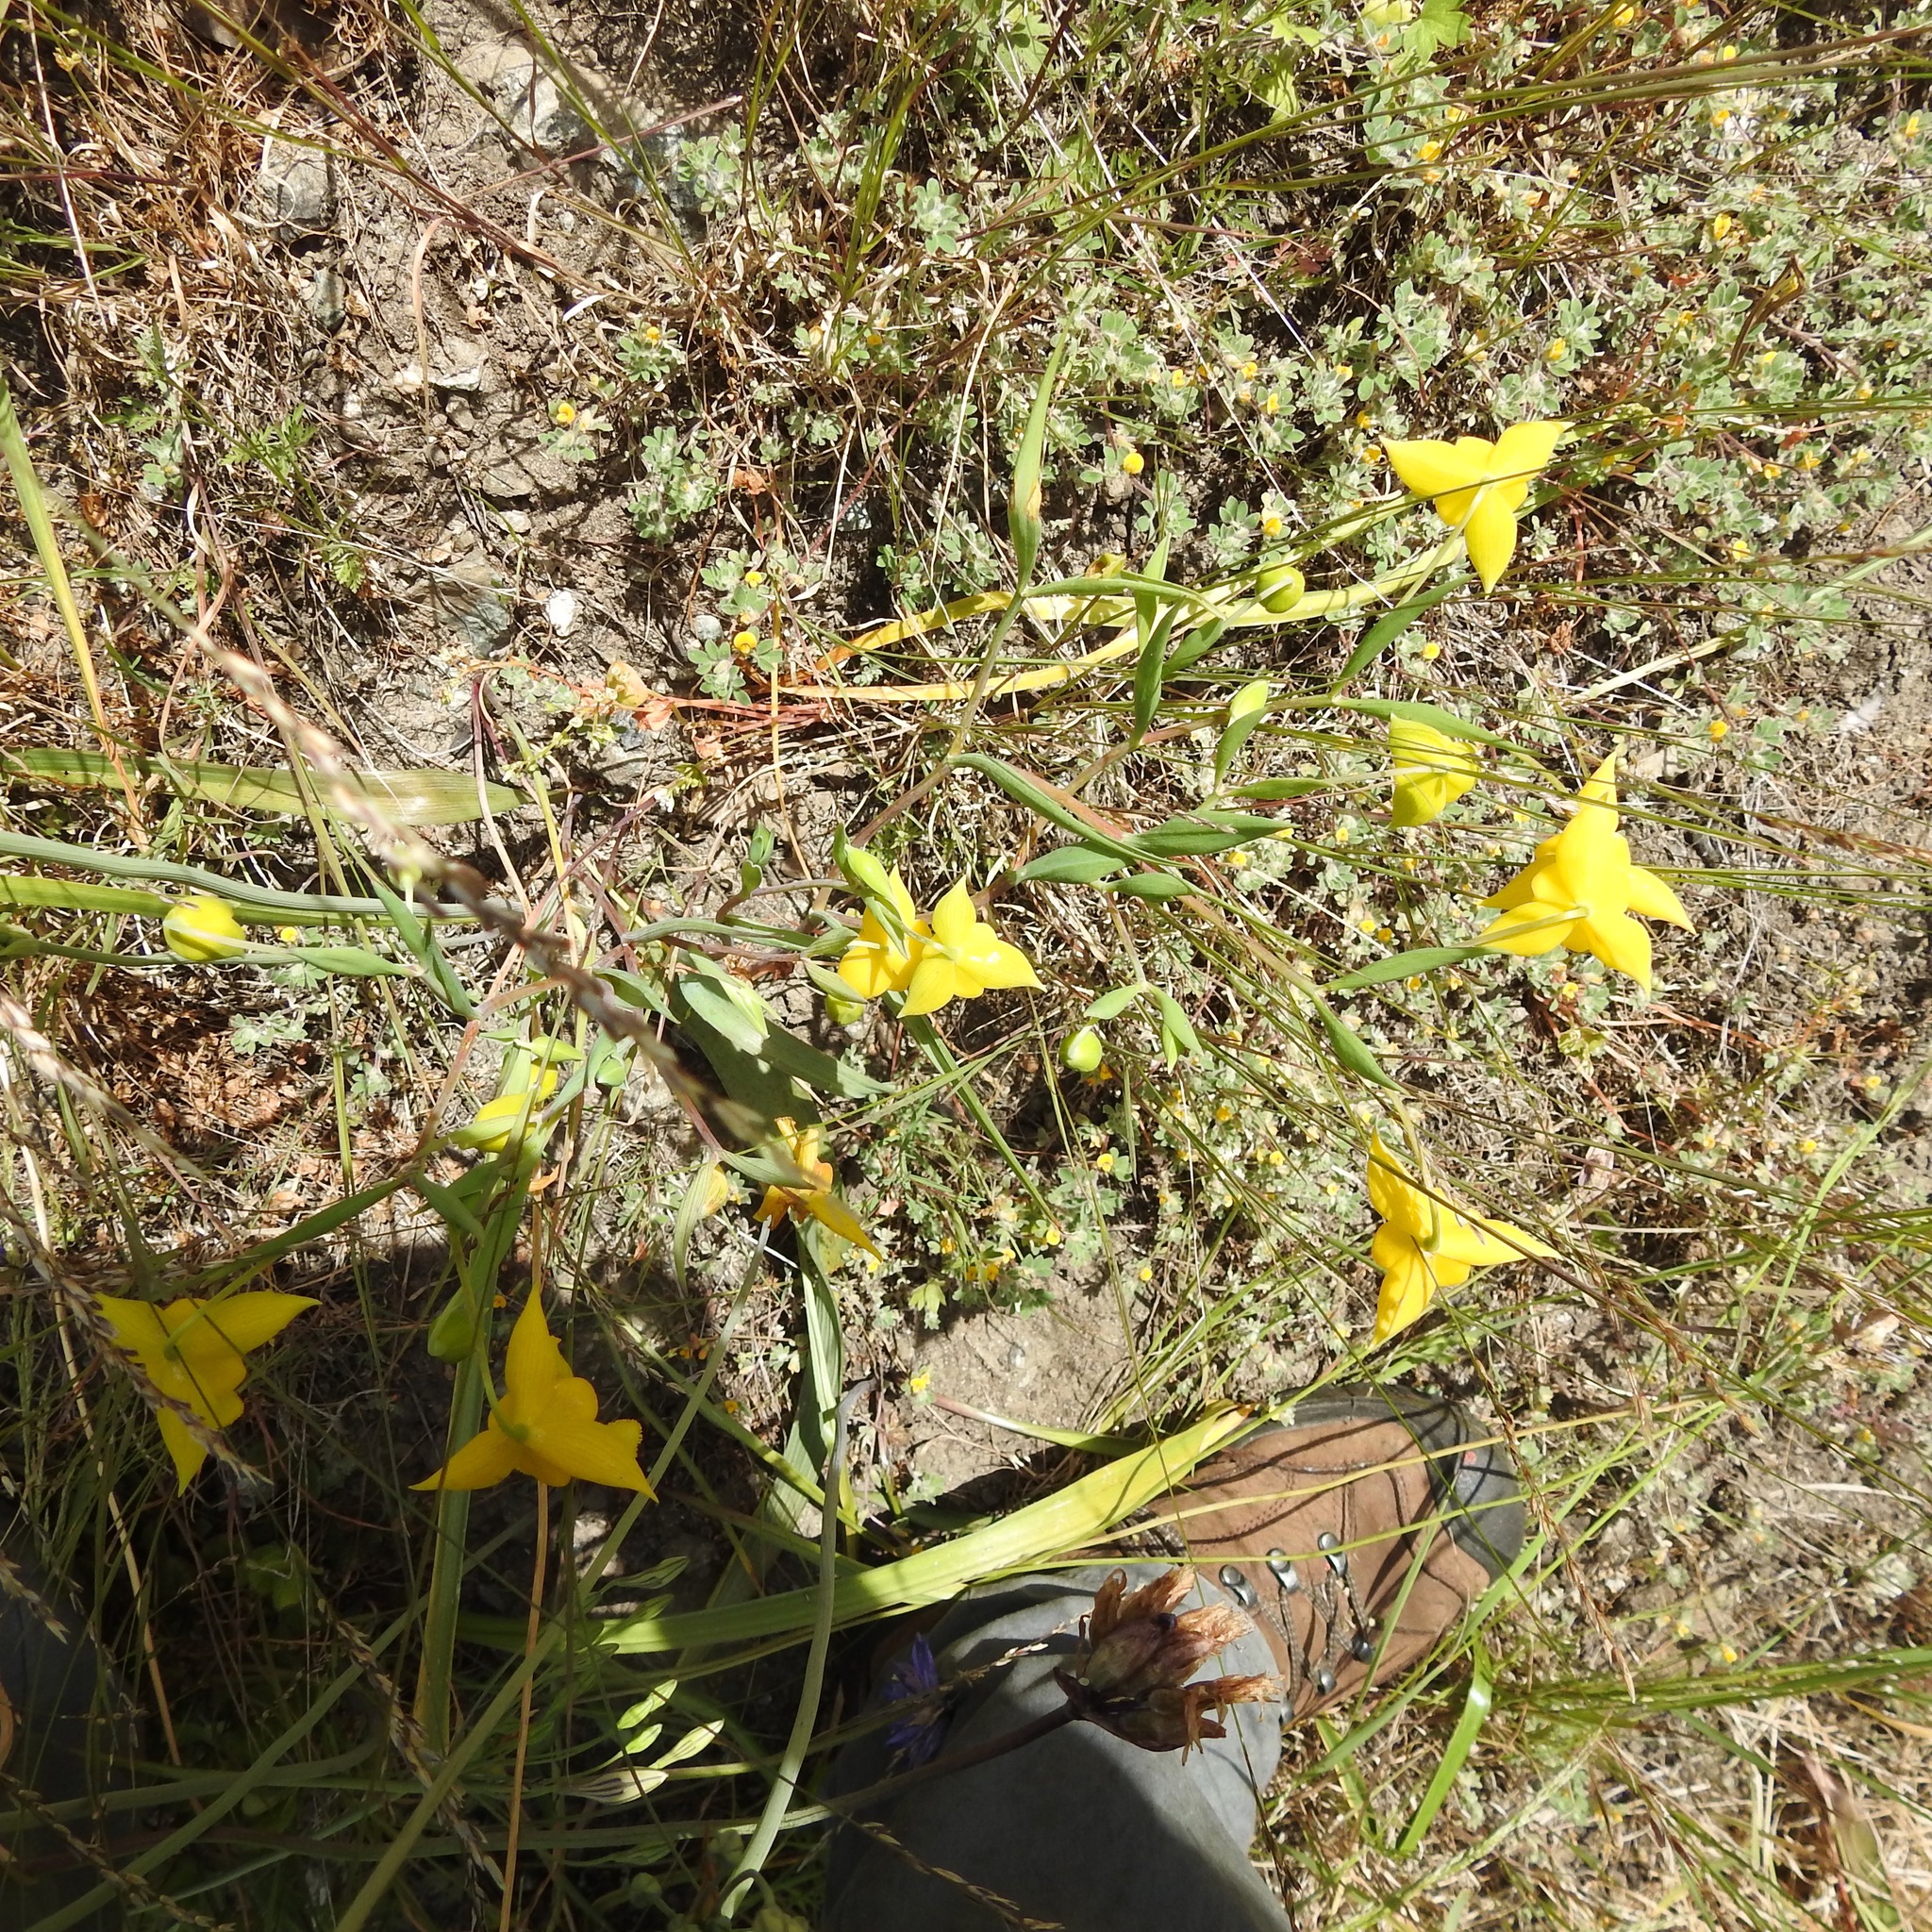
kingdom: Plantae
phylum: Tracheophyta
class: Liliopsida
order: Liliales
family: Liliaceae
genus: Calochortus
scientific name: Calochortus amabilis
